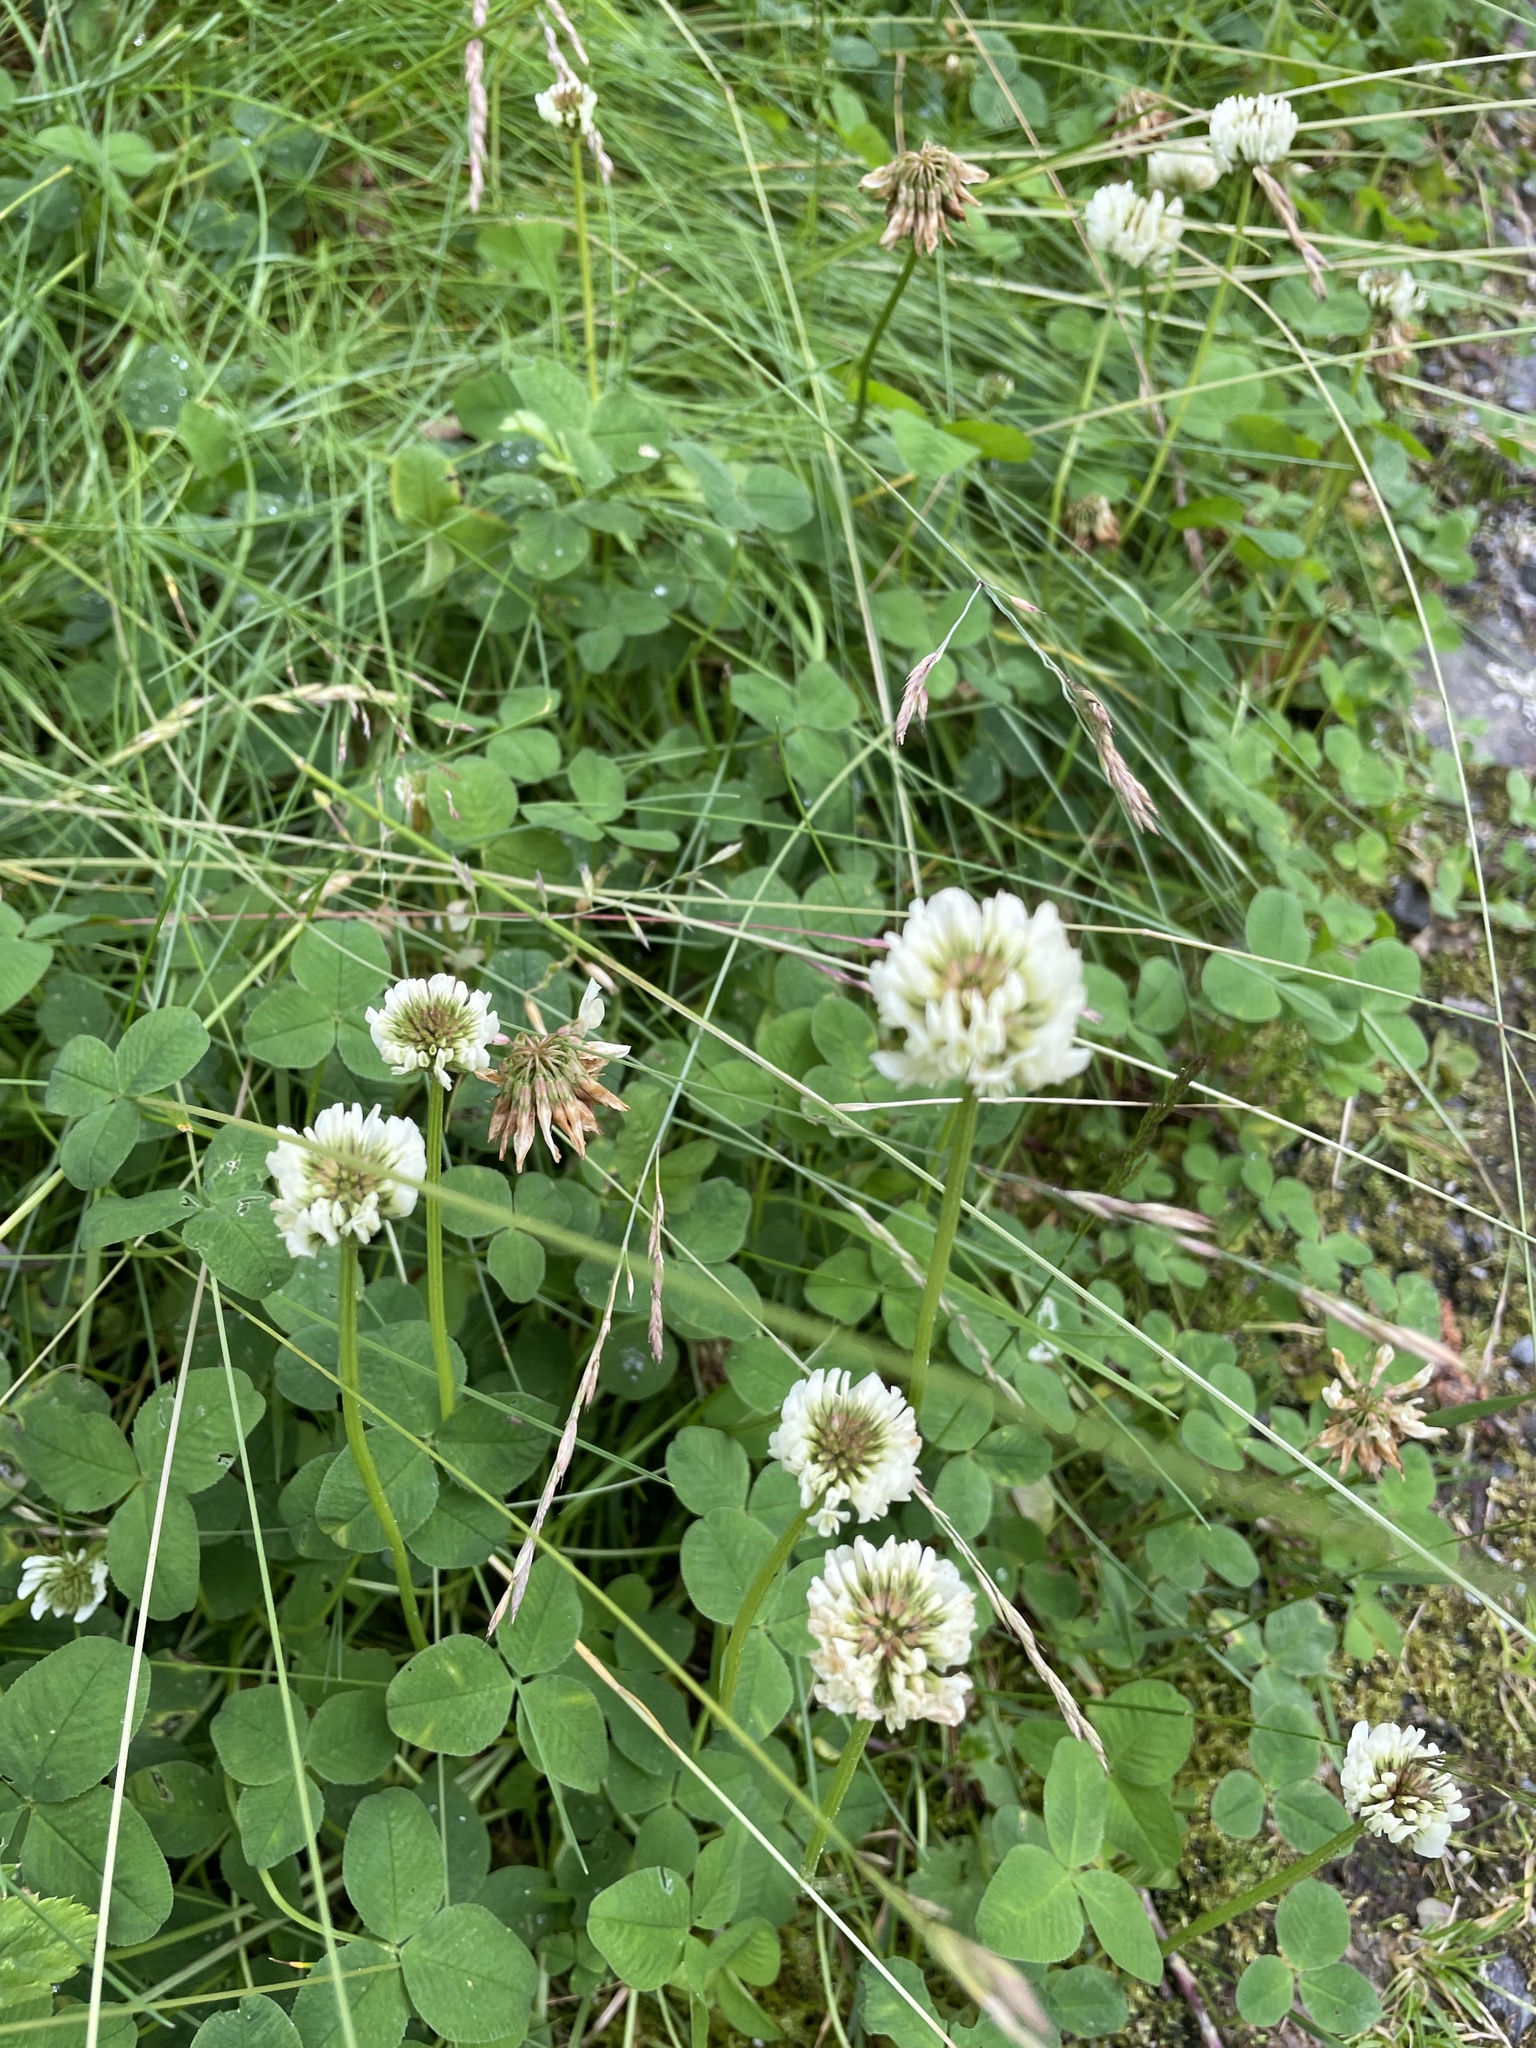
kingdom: Plantae
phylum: Tracheophyta
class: Magnoliopsida
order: Fabales
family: Fabaceae
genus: Trifolium
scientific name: Trifolium repens
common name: White clover
